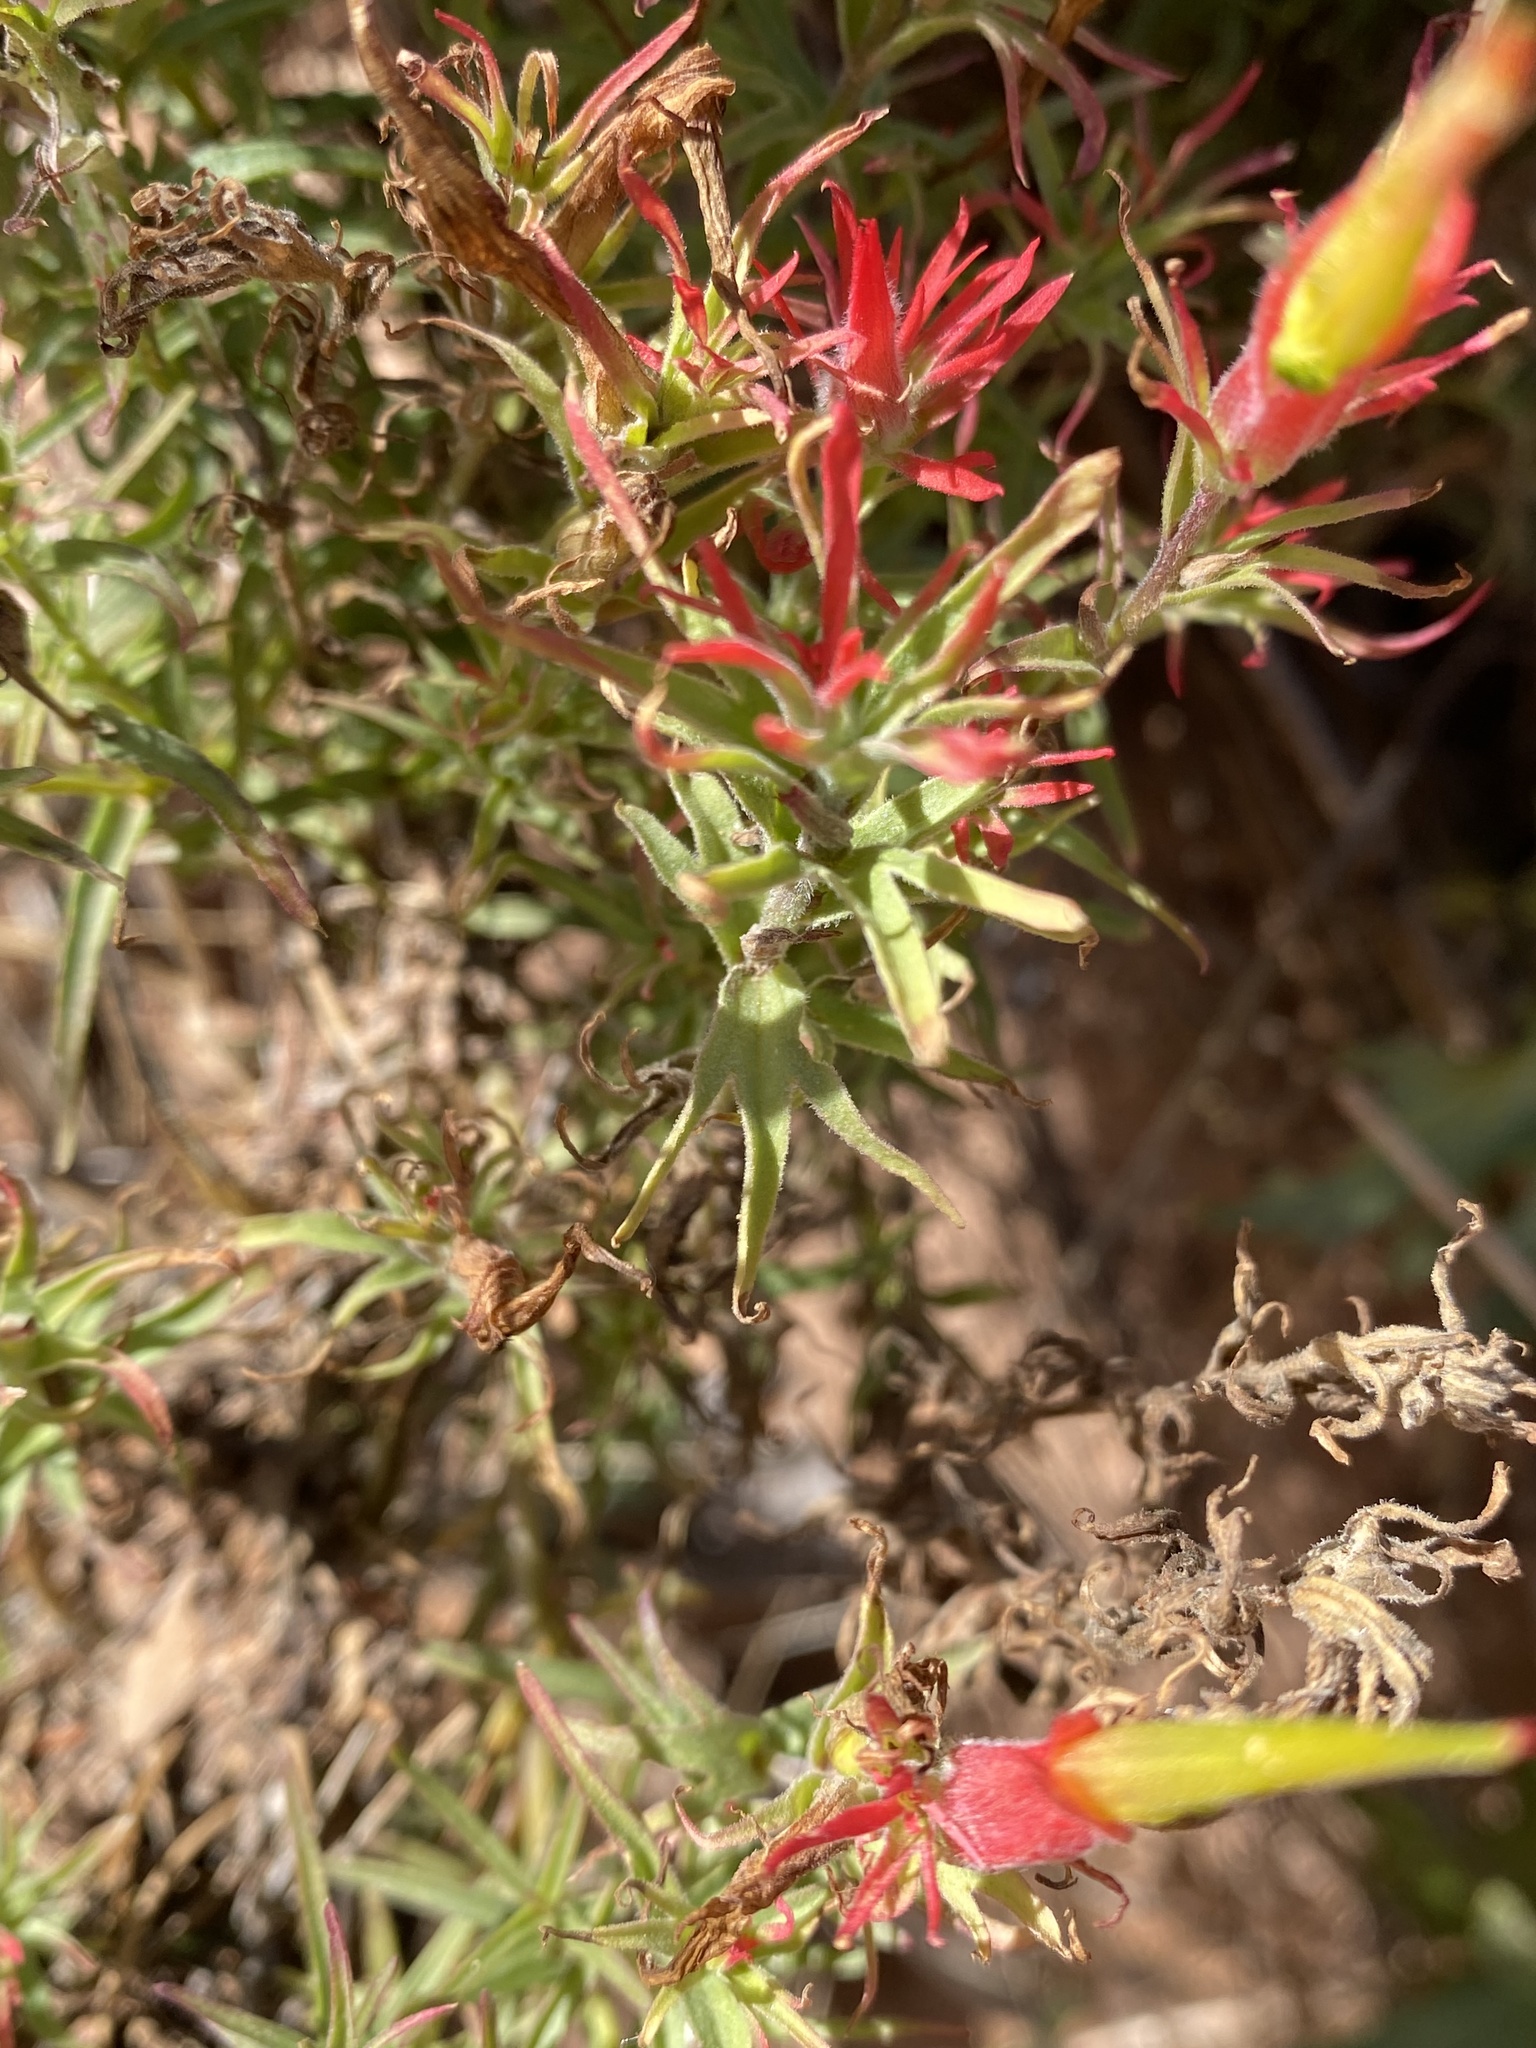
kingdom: Plantae
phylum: Tracheophyta
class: Magnoliopsida
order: Lamiales
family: Orobanchaceae
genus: Castilleja
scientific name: Castilleja linariifolia
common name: Wyoming paintbrush
